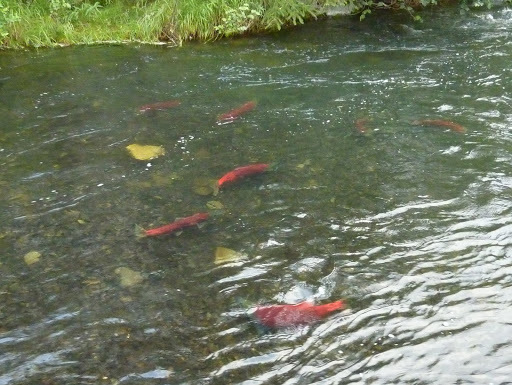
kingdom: Animalia
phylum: Chordata
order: Salmoniformes
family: Salmonidae
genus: Oncorhynchus
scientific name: Oncorhynchus nerka
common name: Sockeye salmon
